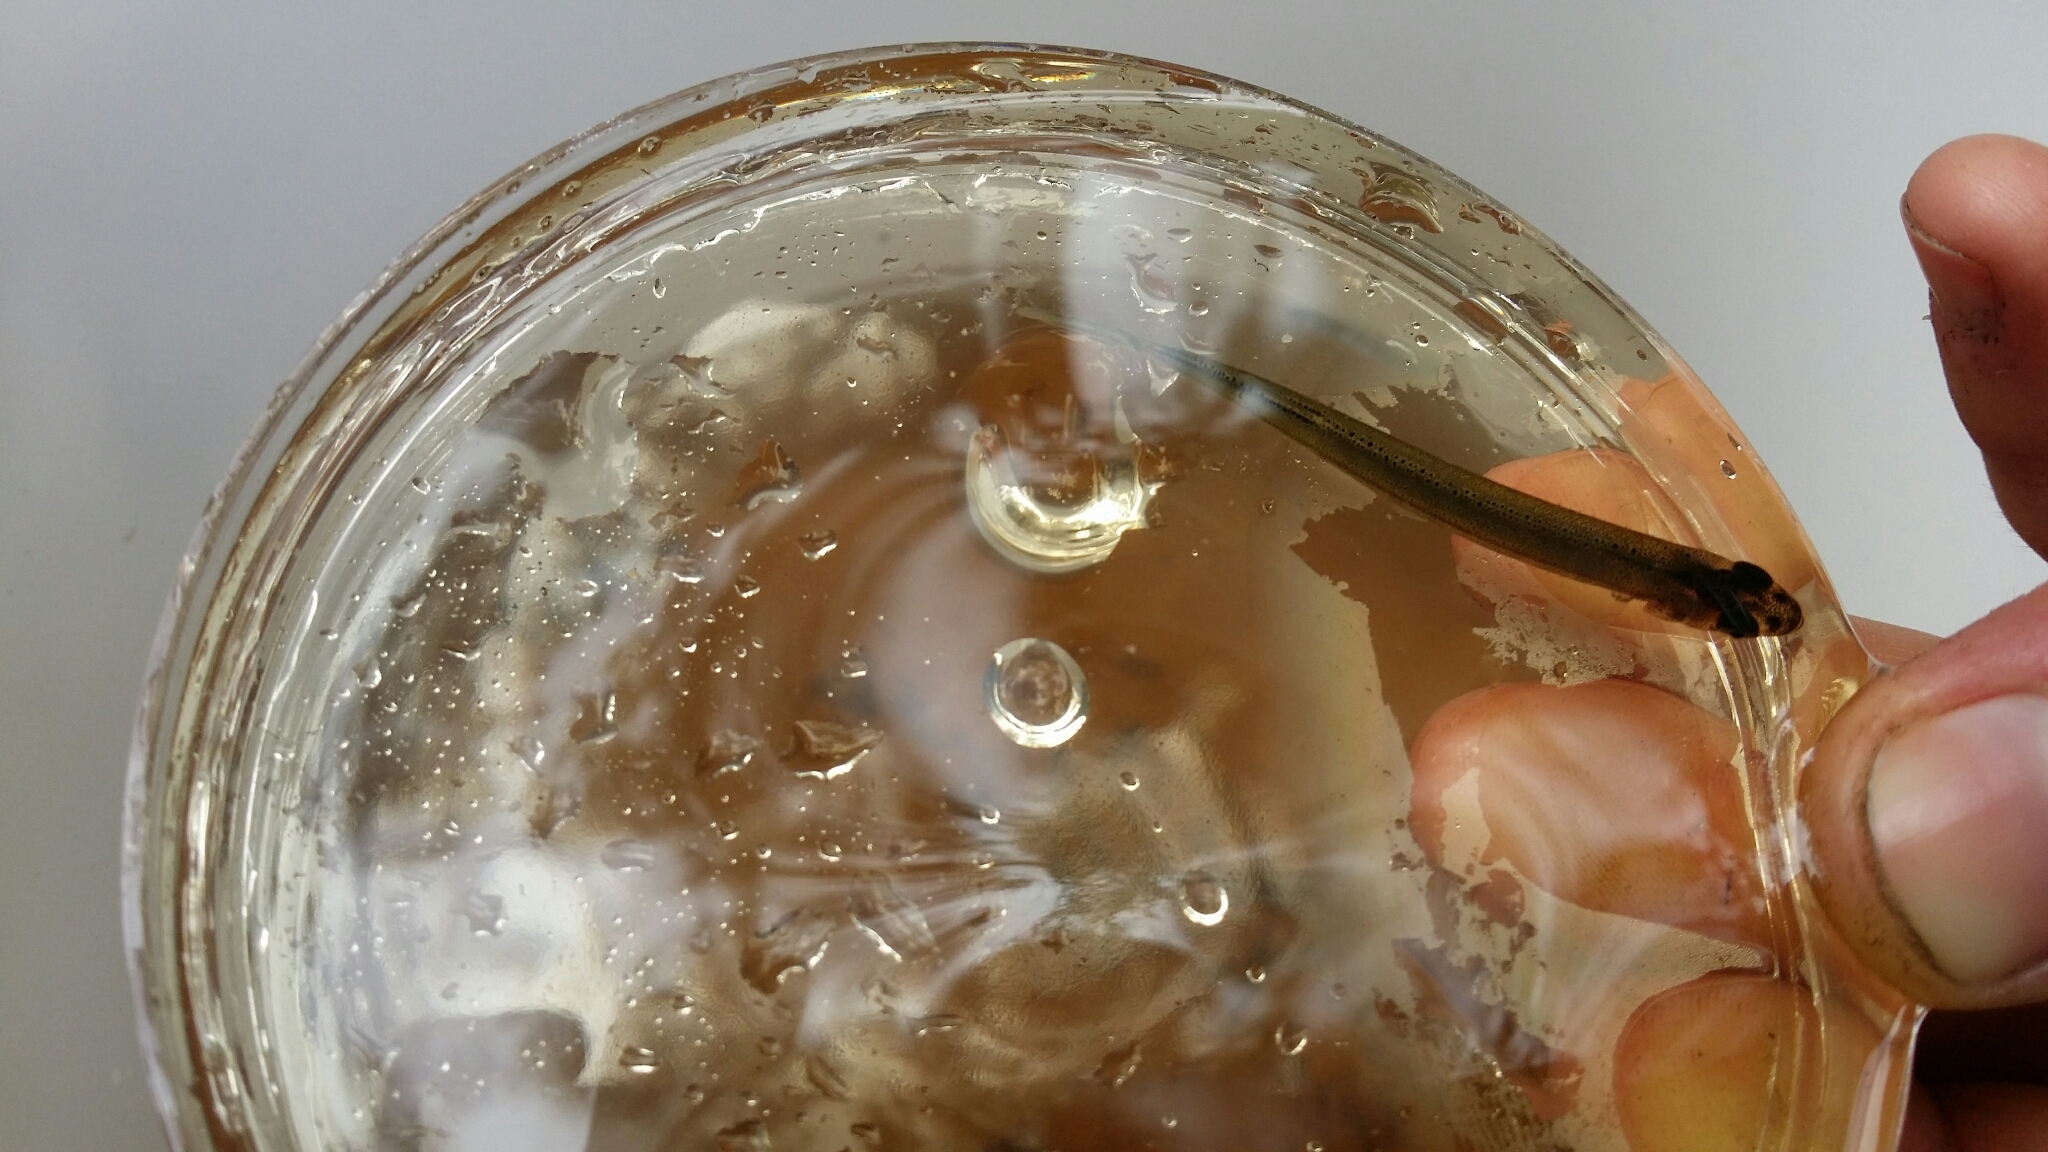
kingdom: Animalia
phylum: Chordata
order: Osmeriformes
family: Galaxiidae
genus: Galaxias
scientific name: Galaxias truttaceus
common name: Spotted galaxias
